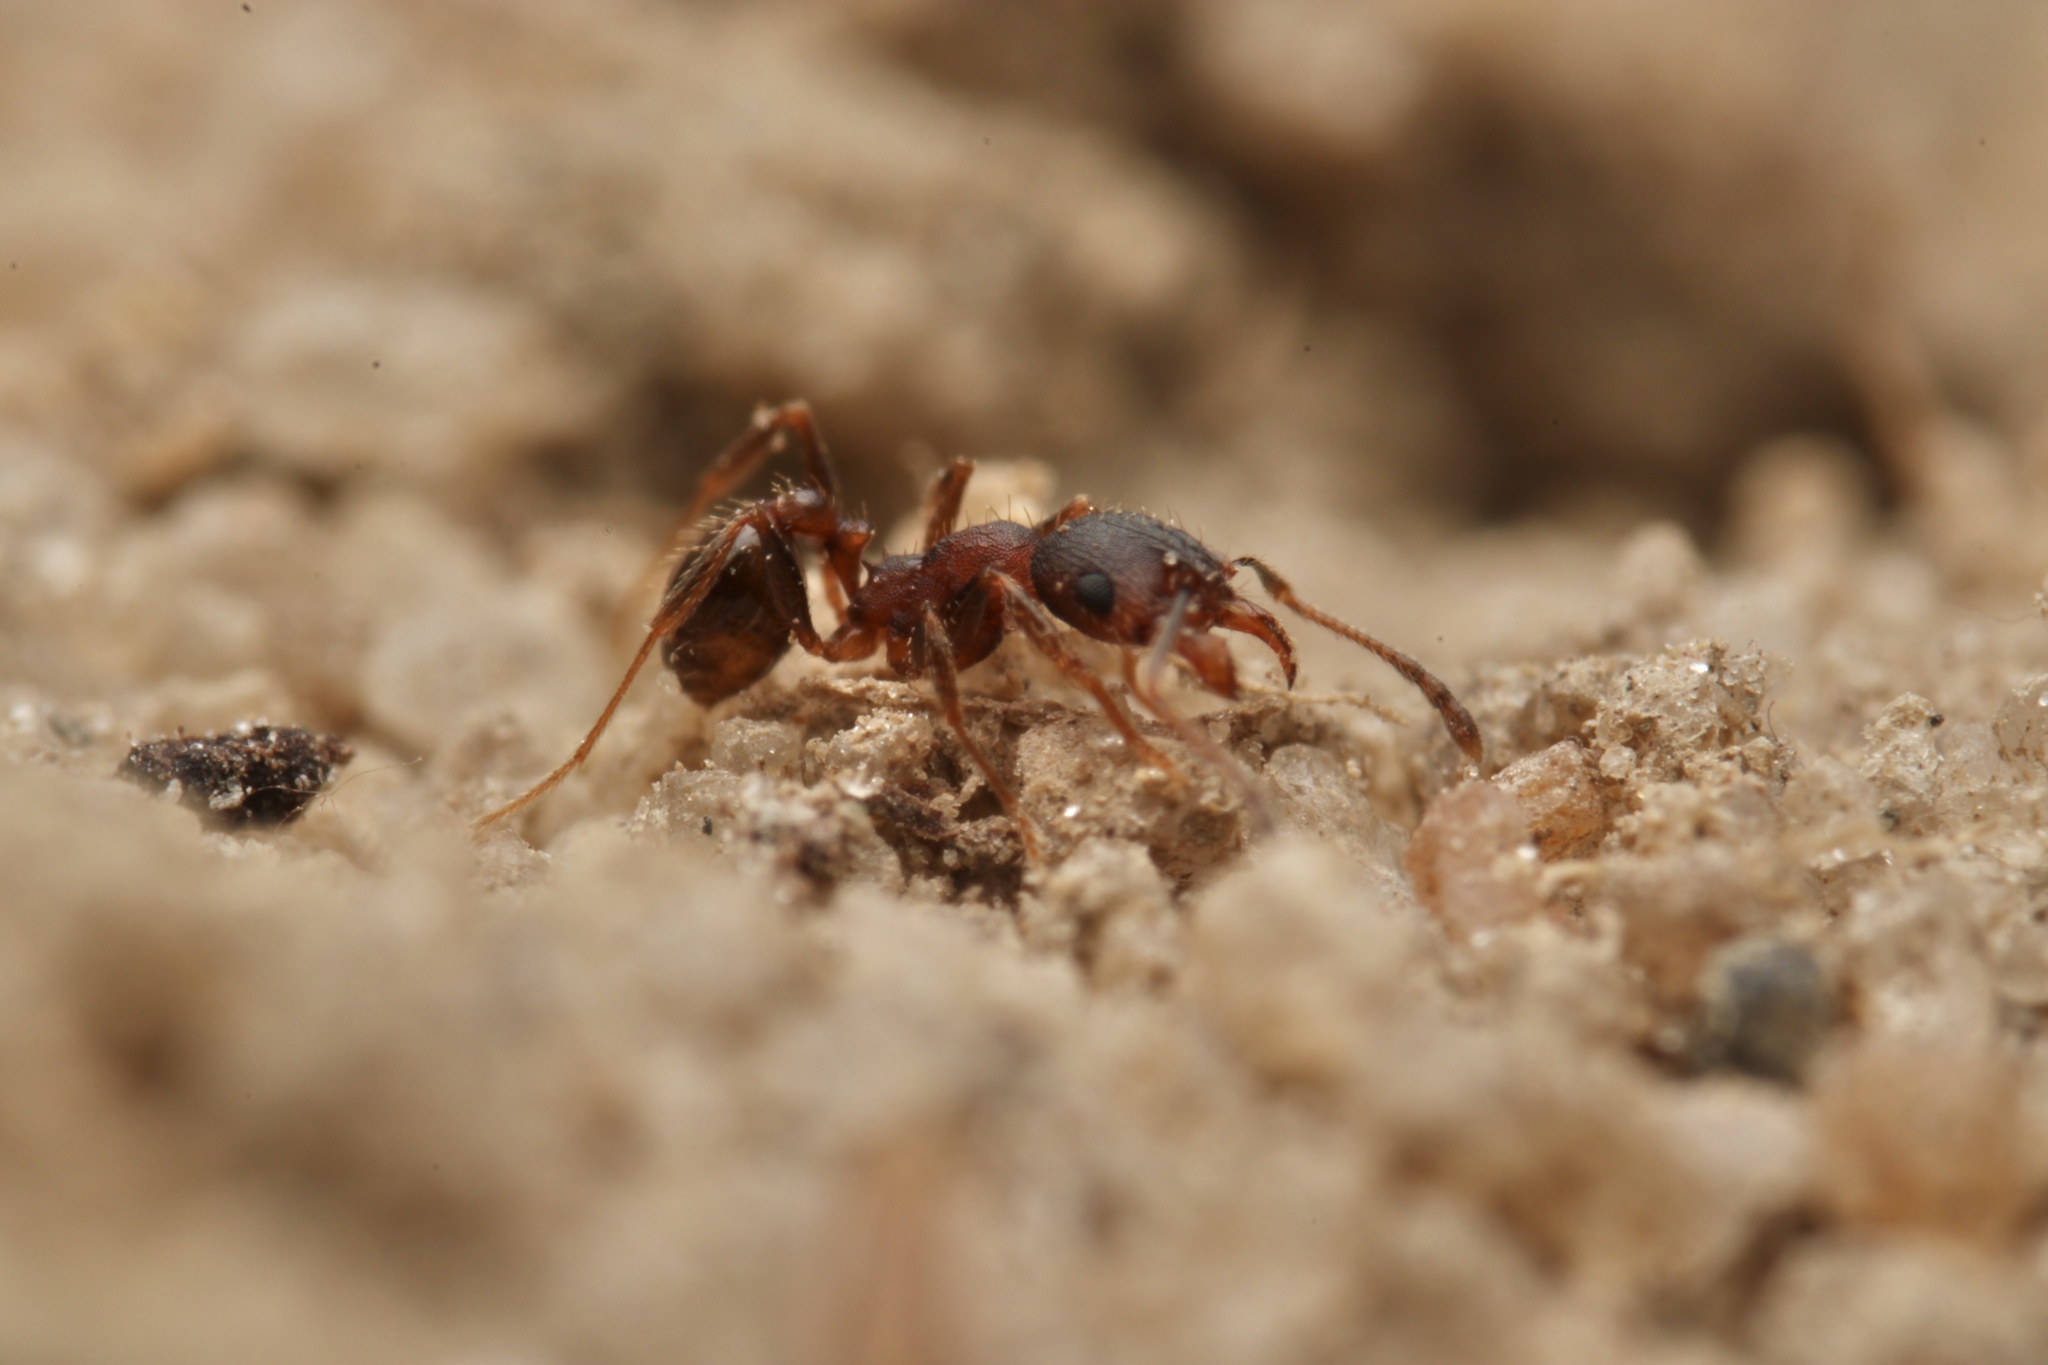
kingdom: Animalia
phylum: Arthropoda
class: Insecta
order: Hymenoptera
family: Formicidae
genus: Pheidole
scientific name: Pheidole pilifera
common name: Hairy big-headed ant
